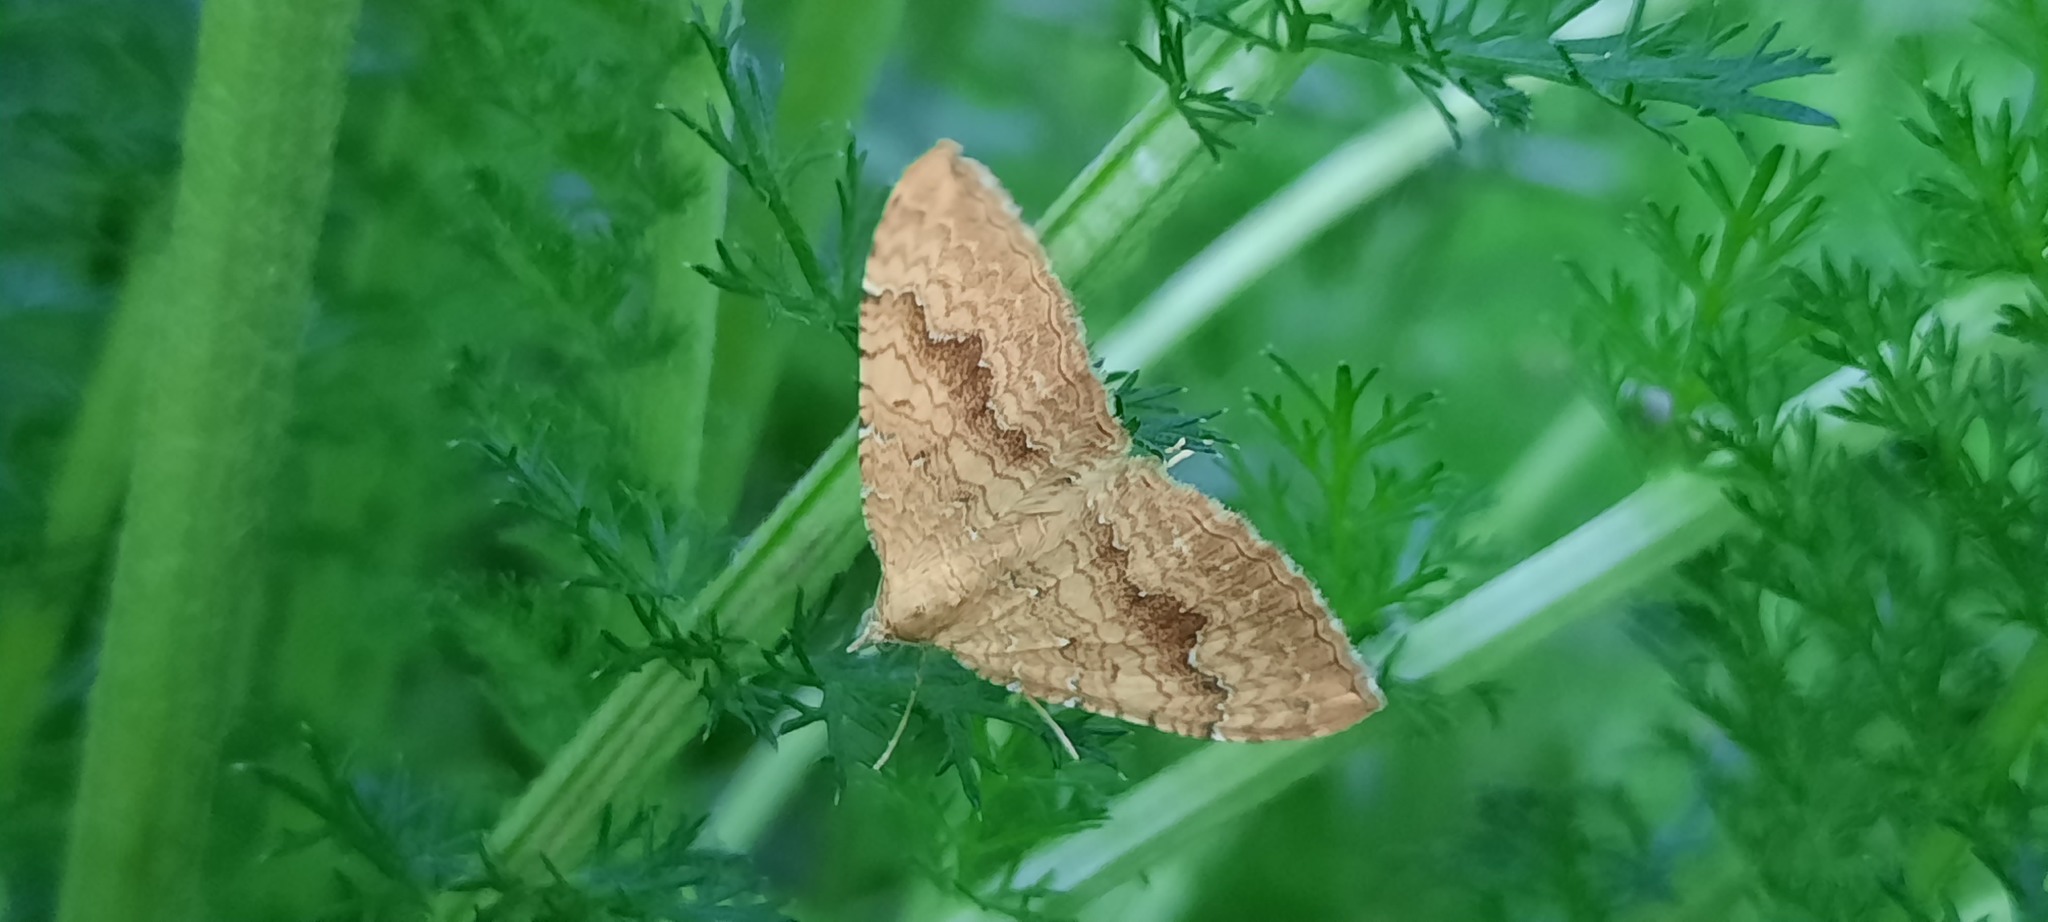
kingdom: Animalia
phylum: Arthropoda
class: Insecta
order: Lepidoptera
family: Geometridae
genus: Camptogramma
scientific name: Camptogramma bilineata
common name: Yellow shell
